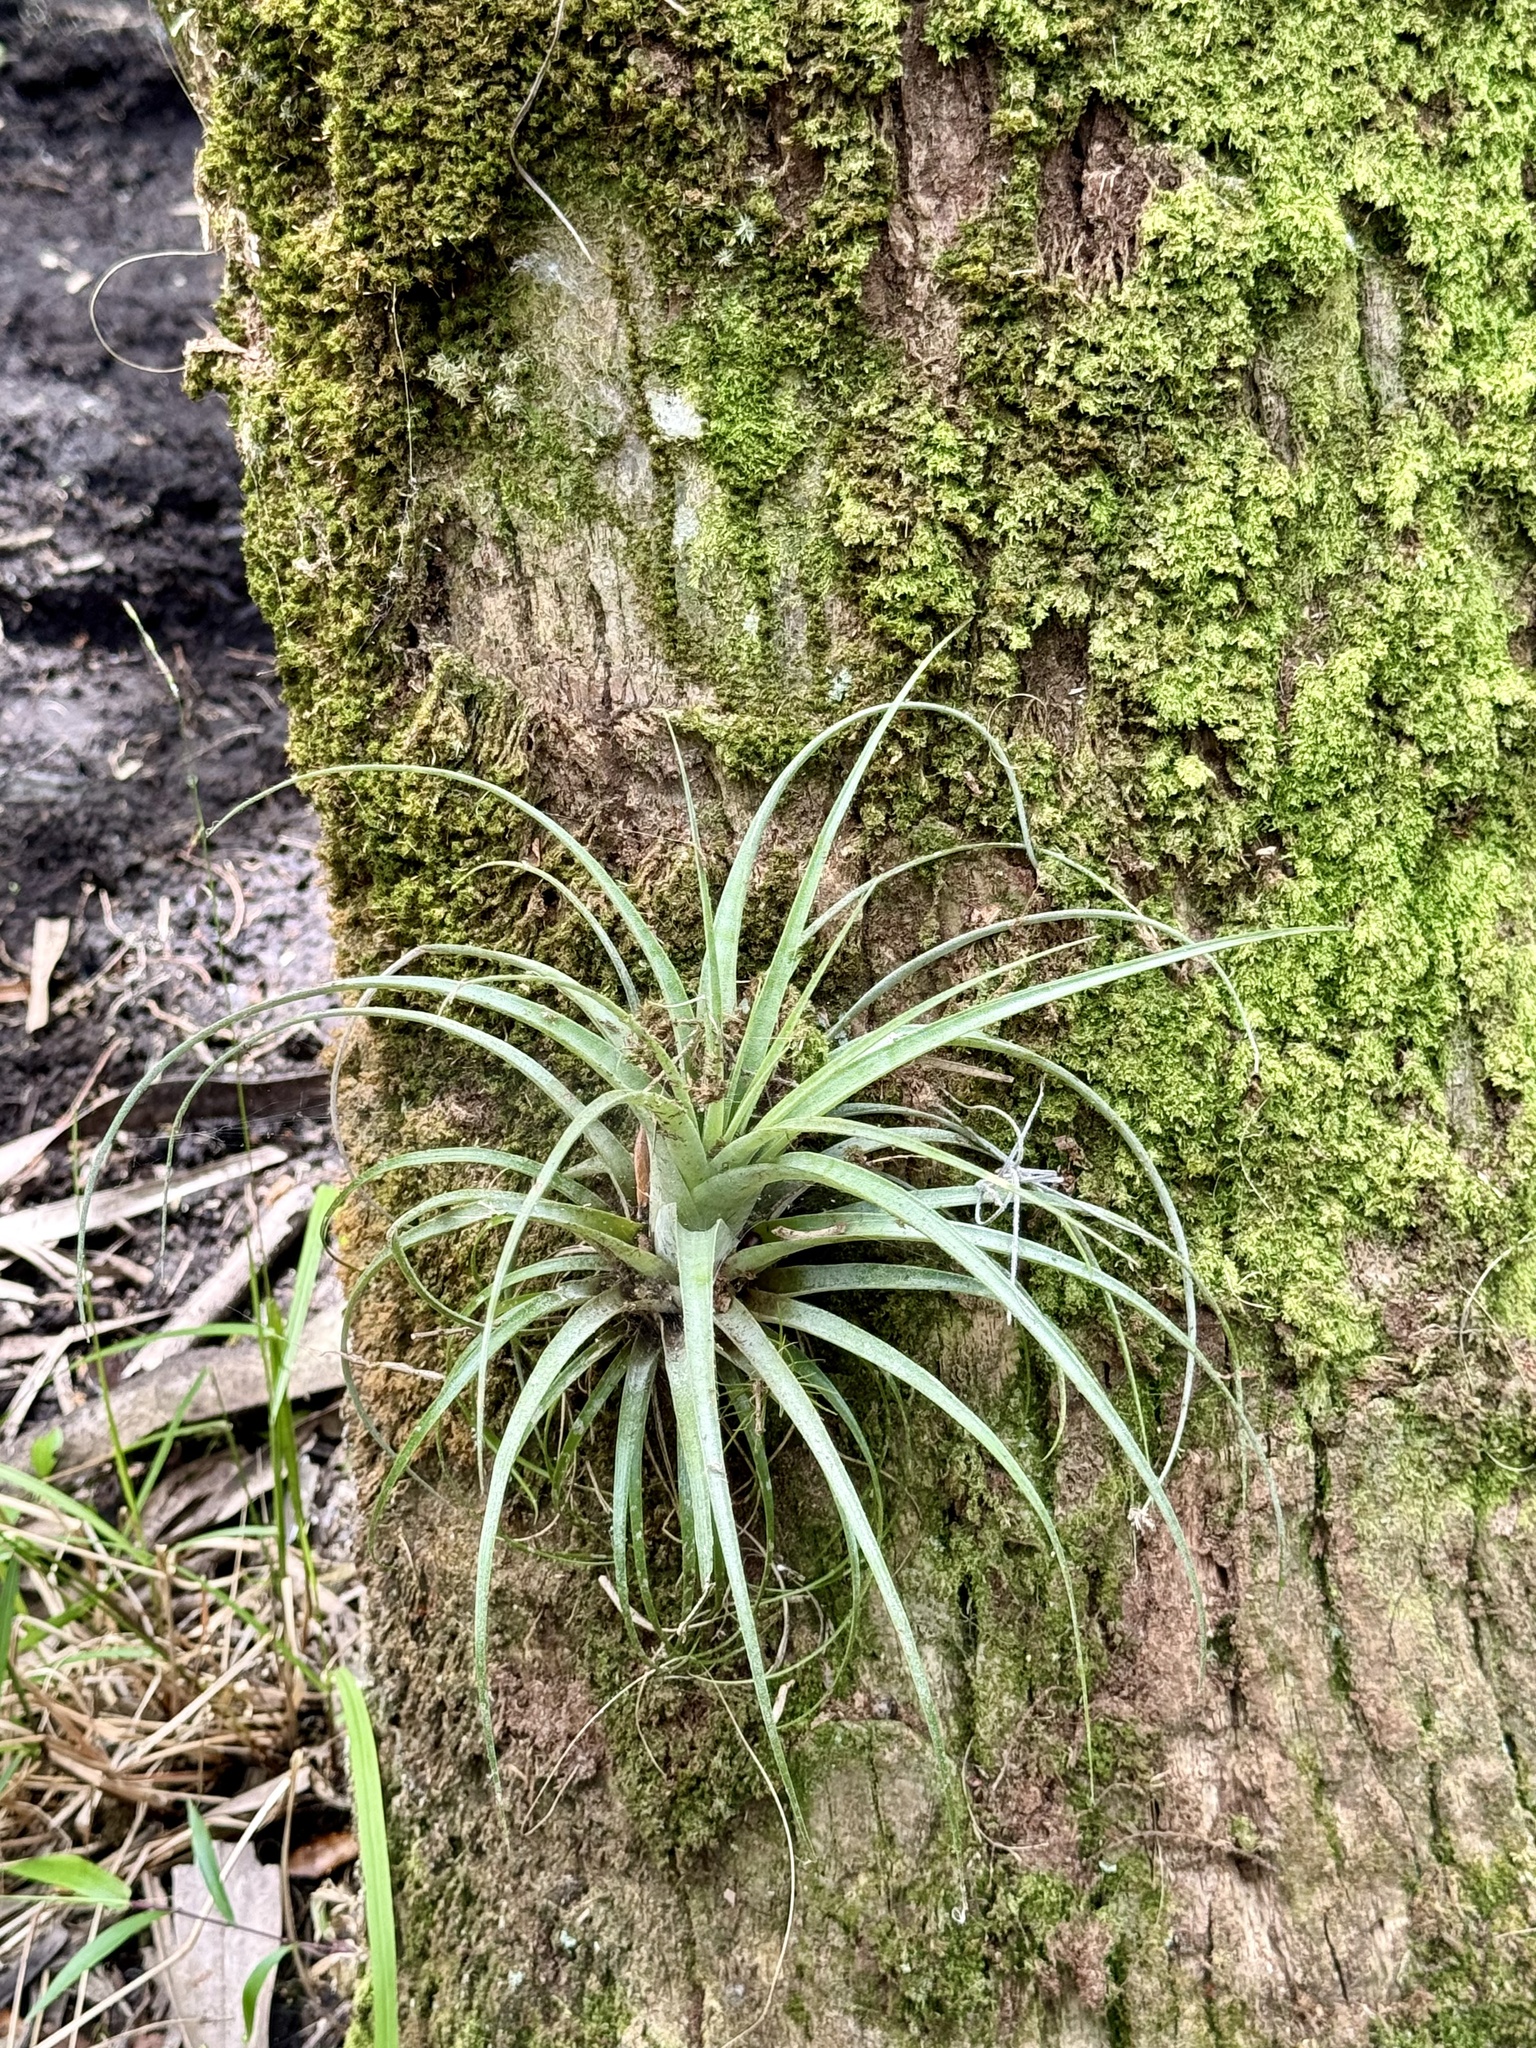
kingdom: Plantae
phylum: Tracheophyta
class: Liliopsida
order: Poales
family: Bromeliaceae
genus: Tillandsia
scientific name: Tillandsia utriculata
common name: Wild pine
